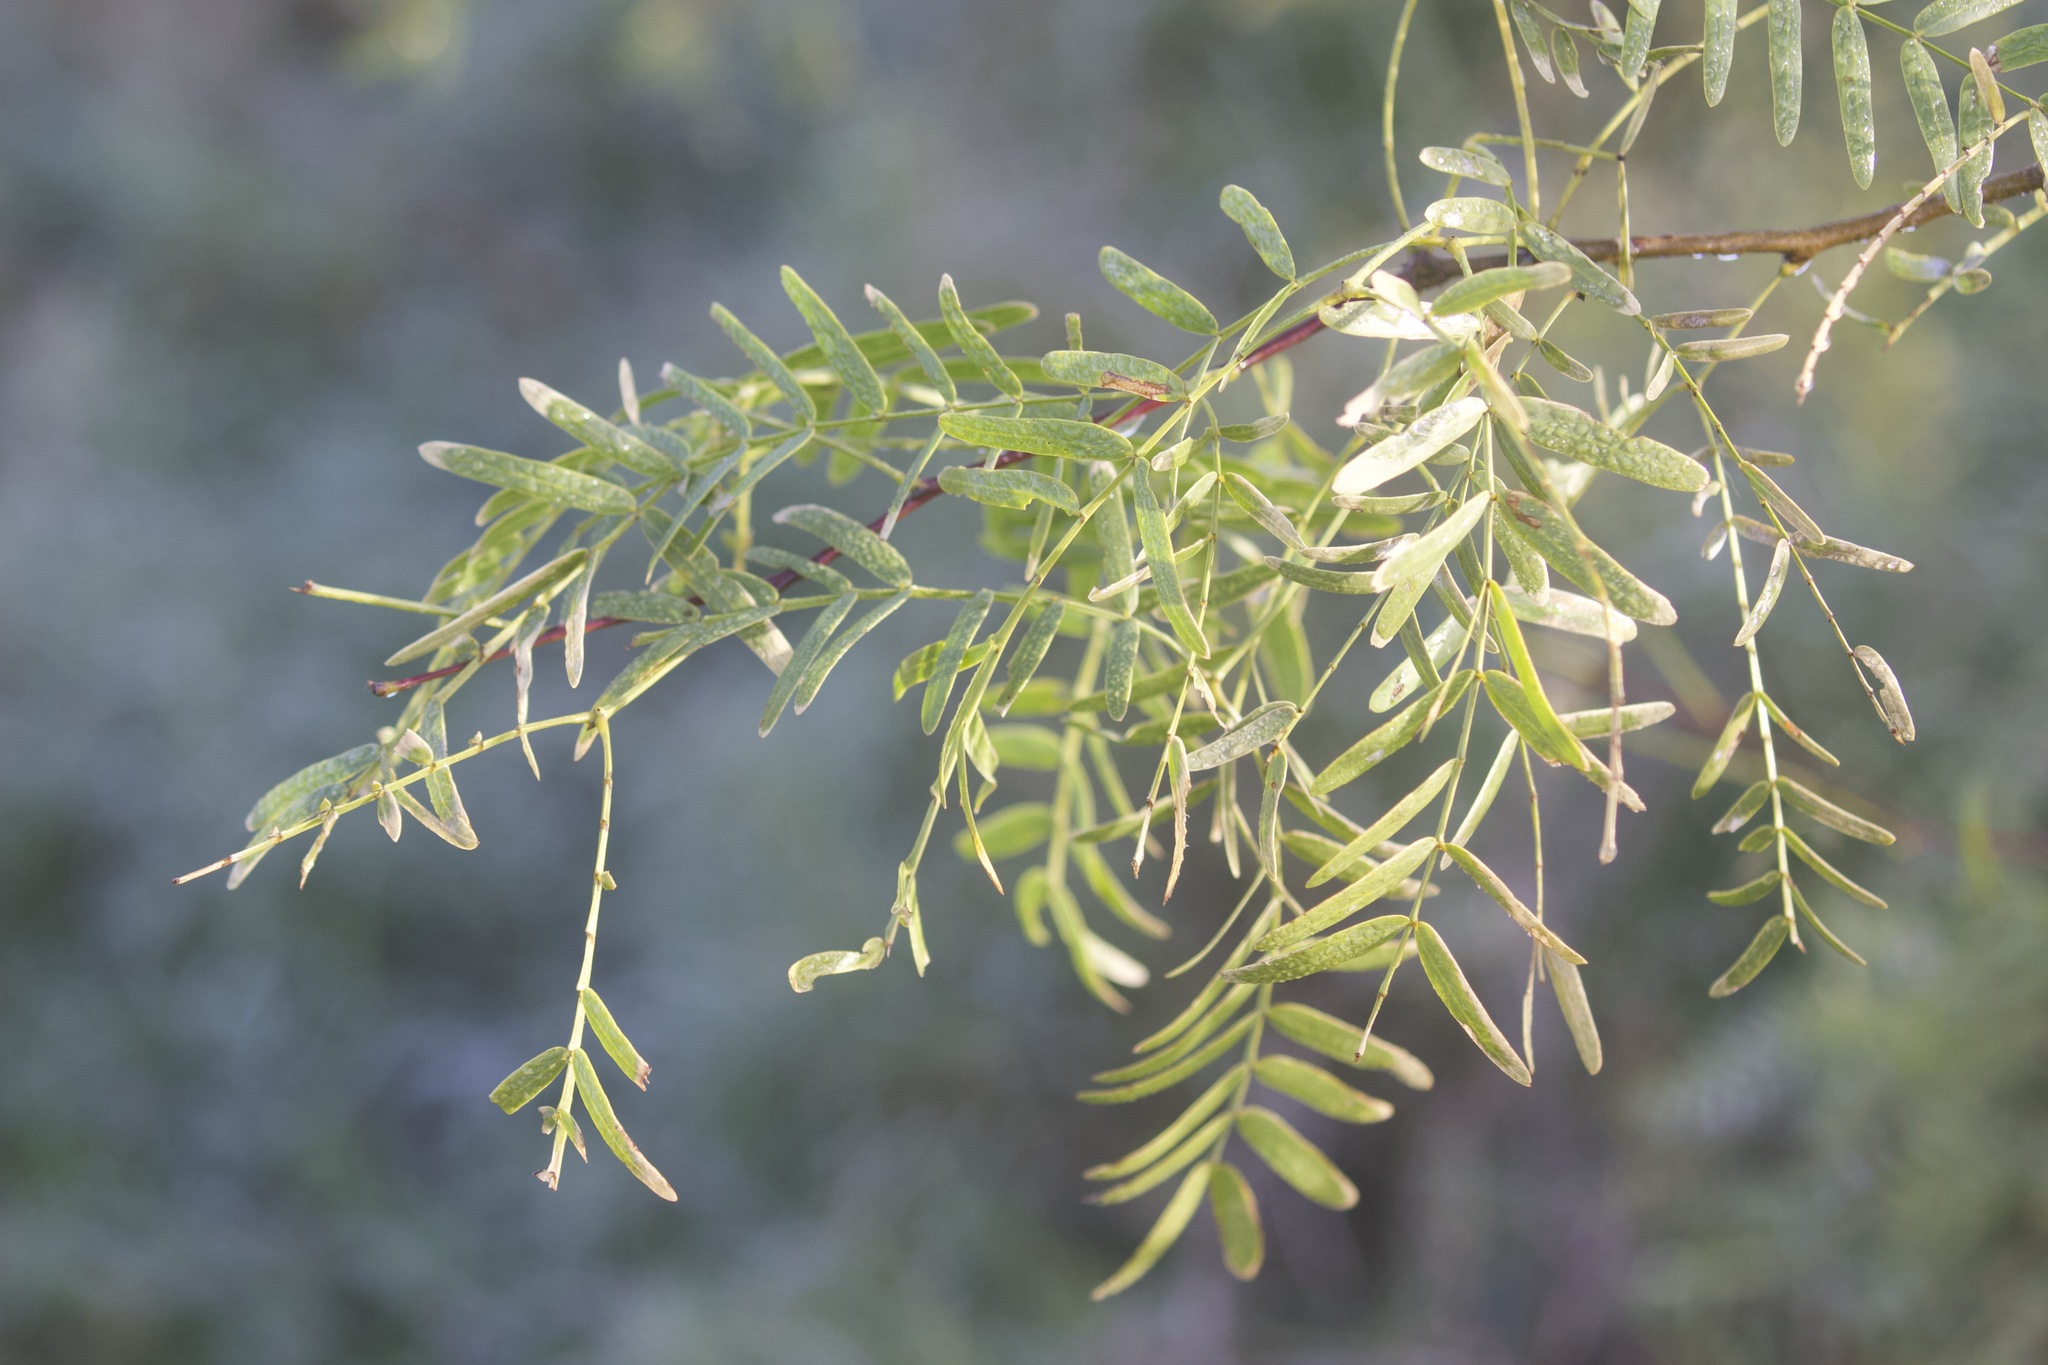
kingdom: Plantae
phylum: Tracheophyta
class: Magnoliopsida
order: Fabales
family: Fabaceae
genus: Prosopis
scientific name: Prosopis glandulosa
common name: Honey mesquite
